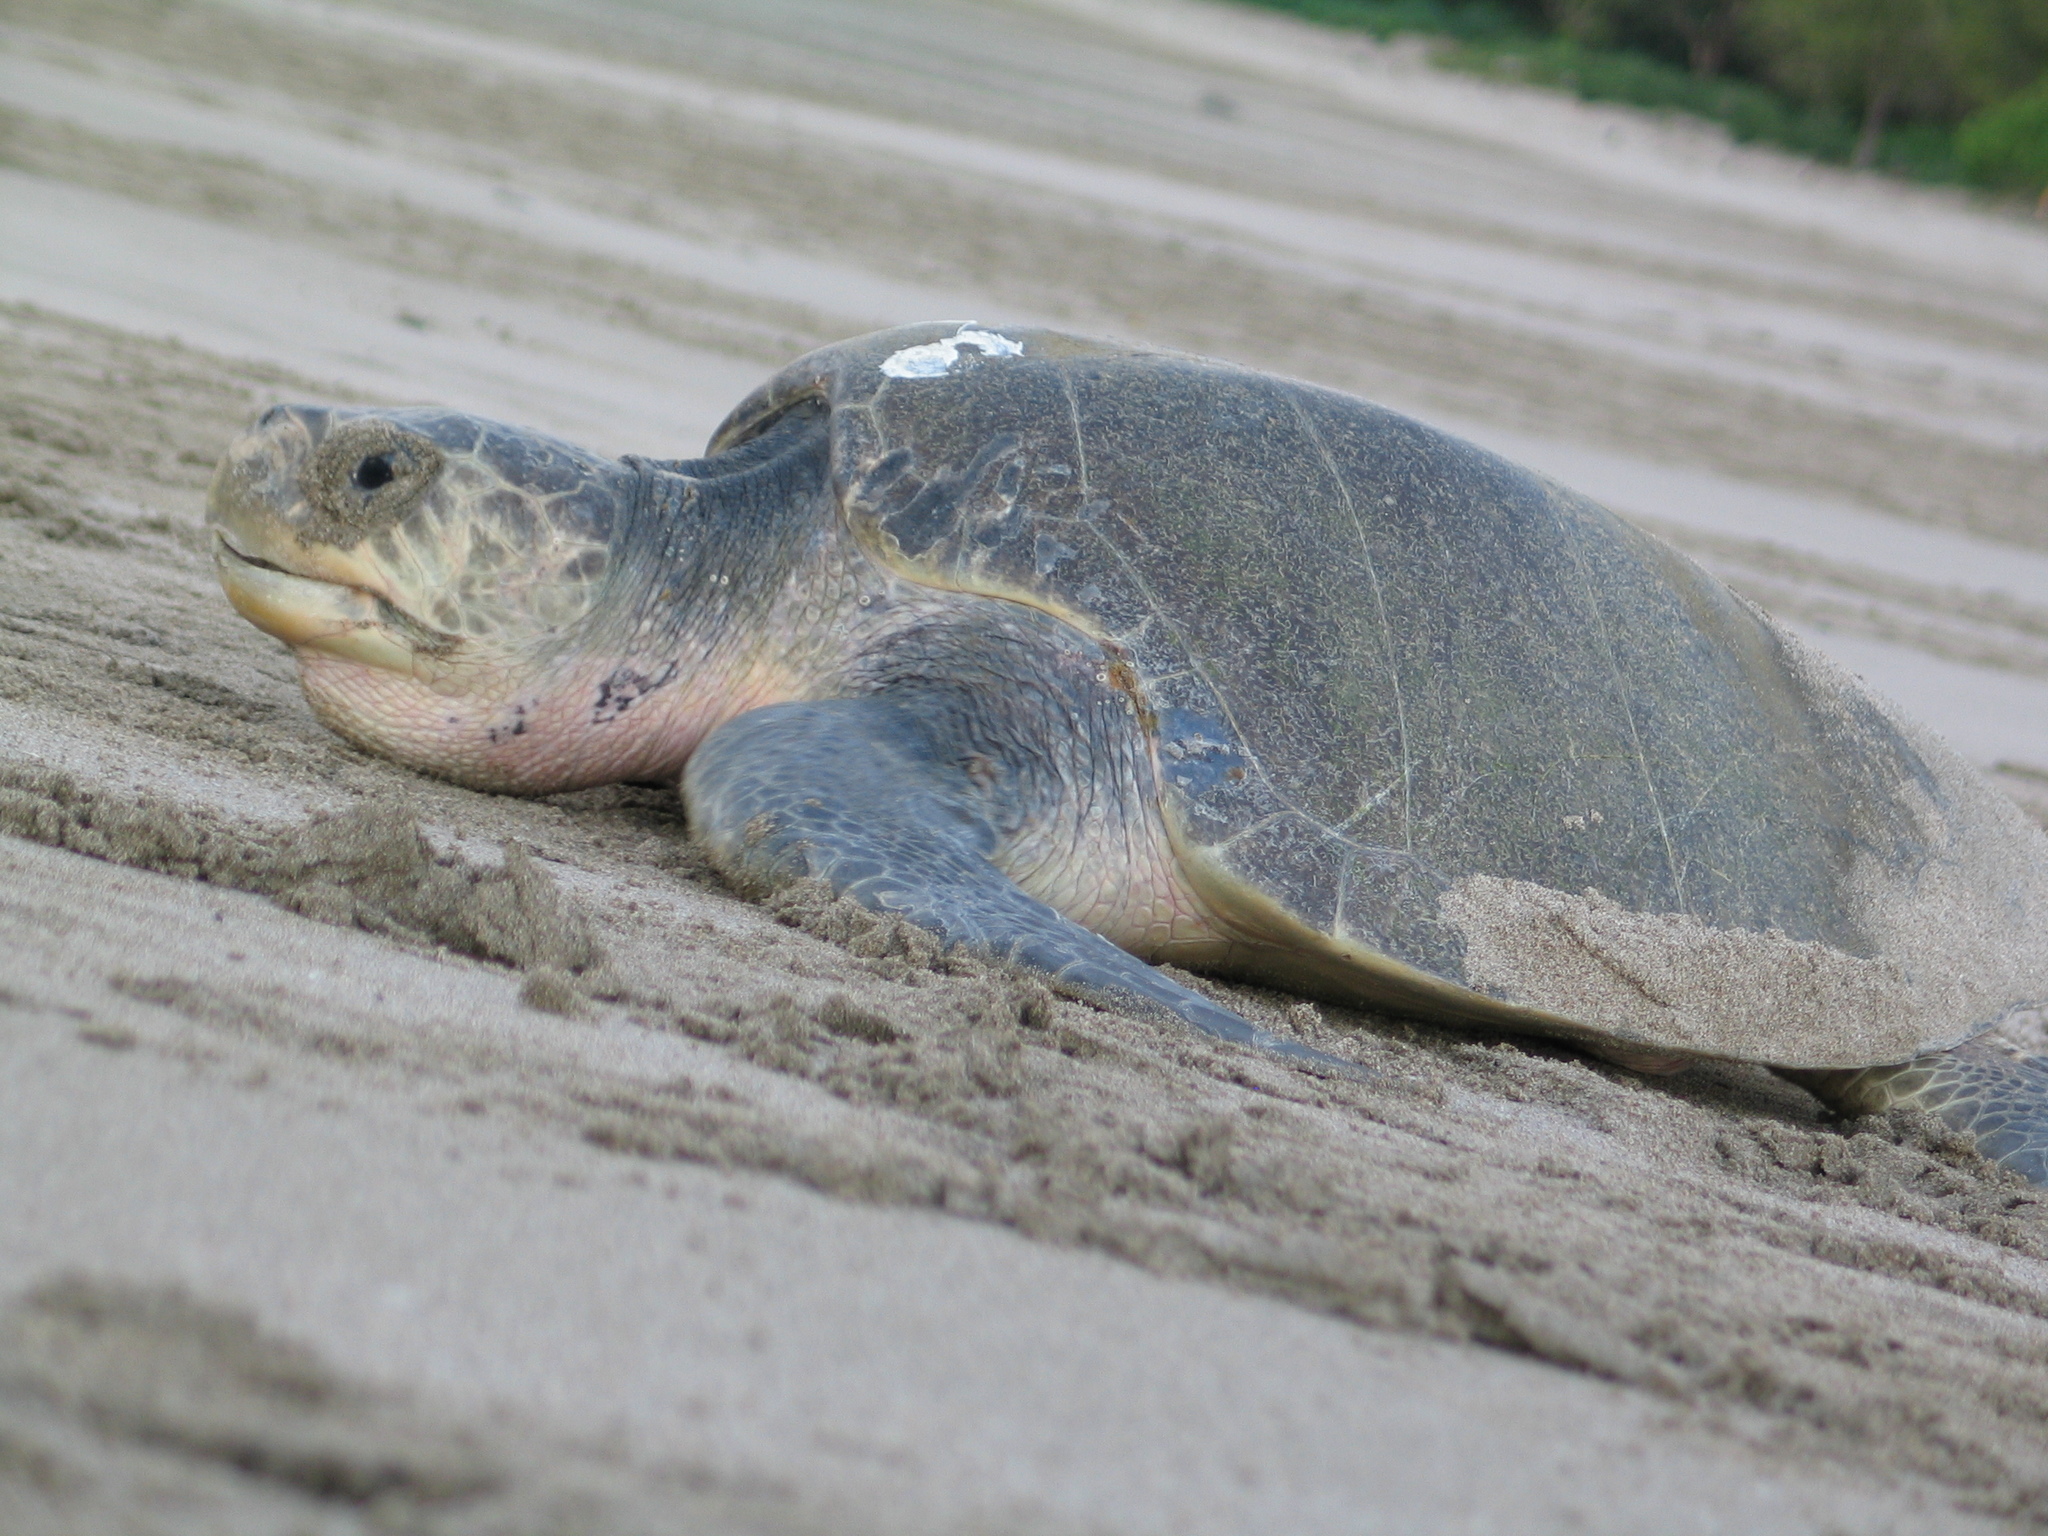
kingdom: Animalia
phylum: Chordata
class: Testudines
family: Cheloniidae
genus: Lepidochelys
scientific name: Lepidochelys olivacea
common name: Olive ridley
